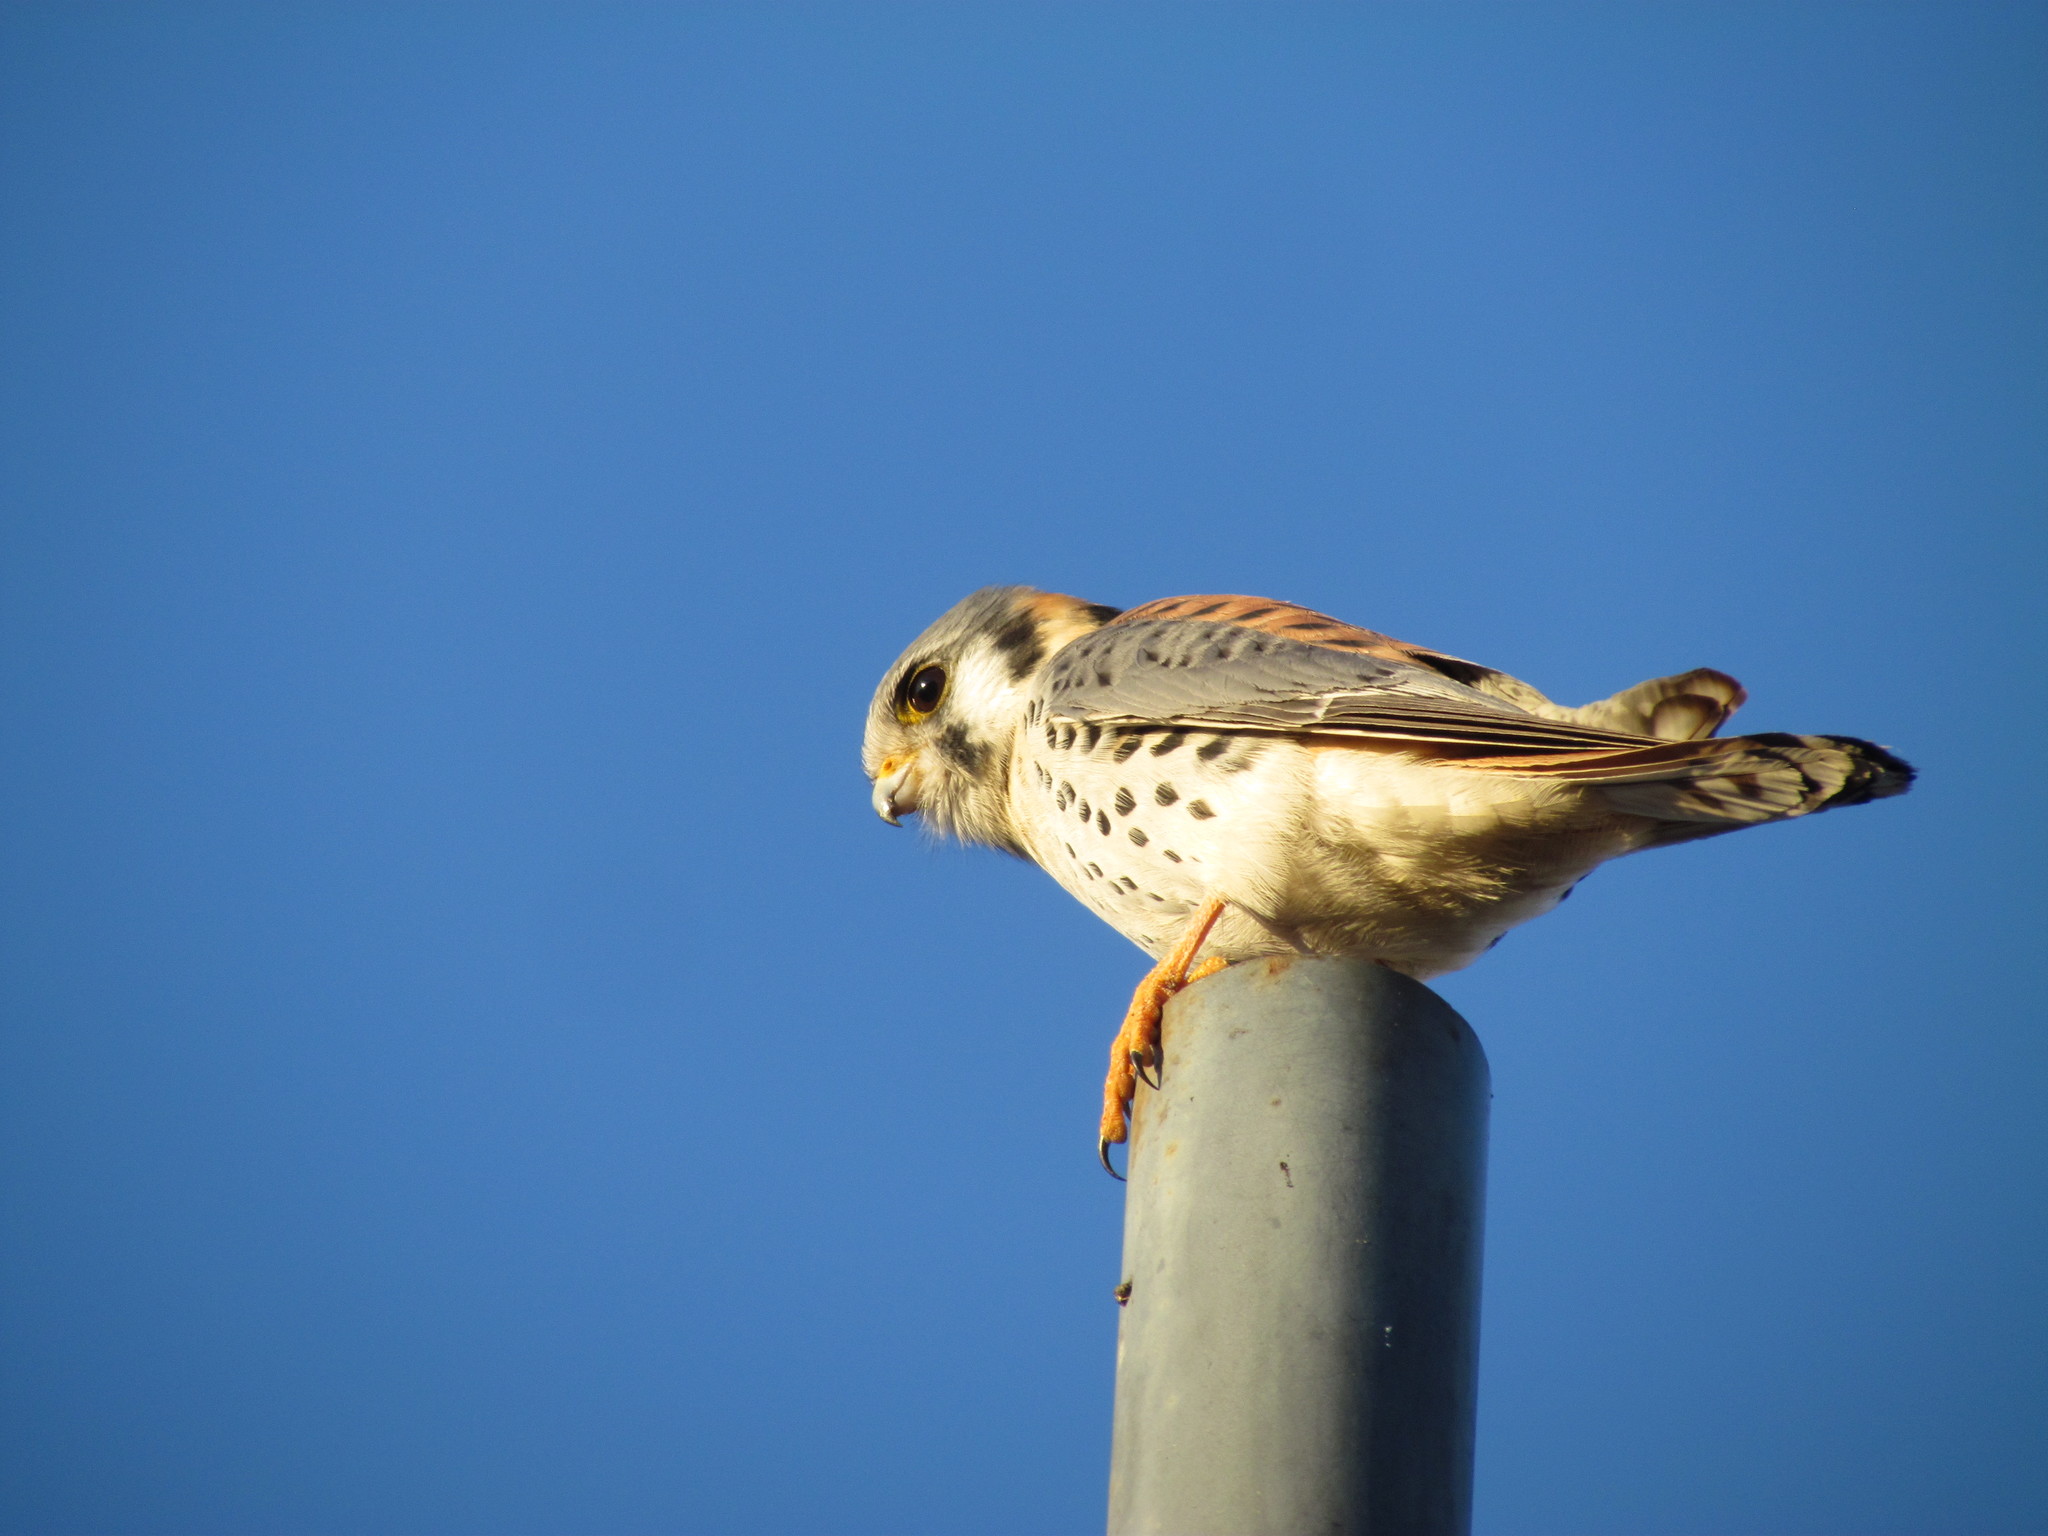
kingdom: Animalia
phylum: Chordata
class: Aves
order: Falconiformes
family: Falconidae
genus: Falco
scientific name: Falco sparverius
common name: American kestrel
